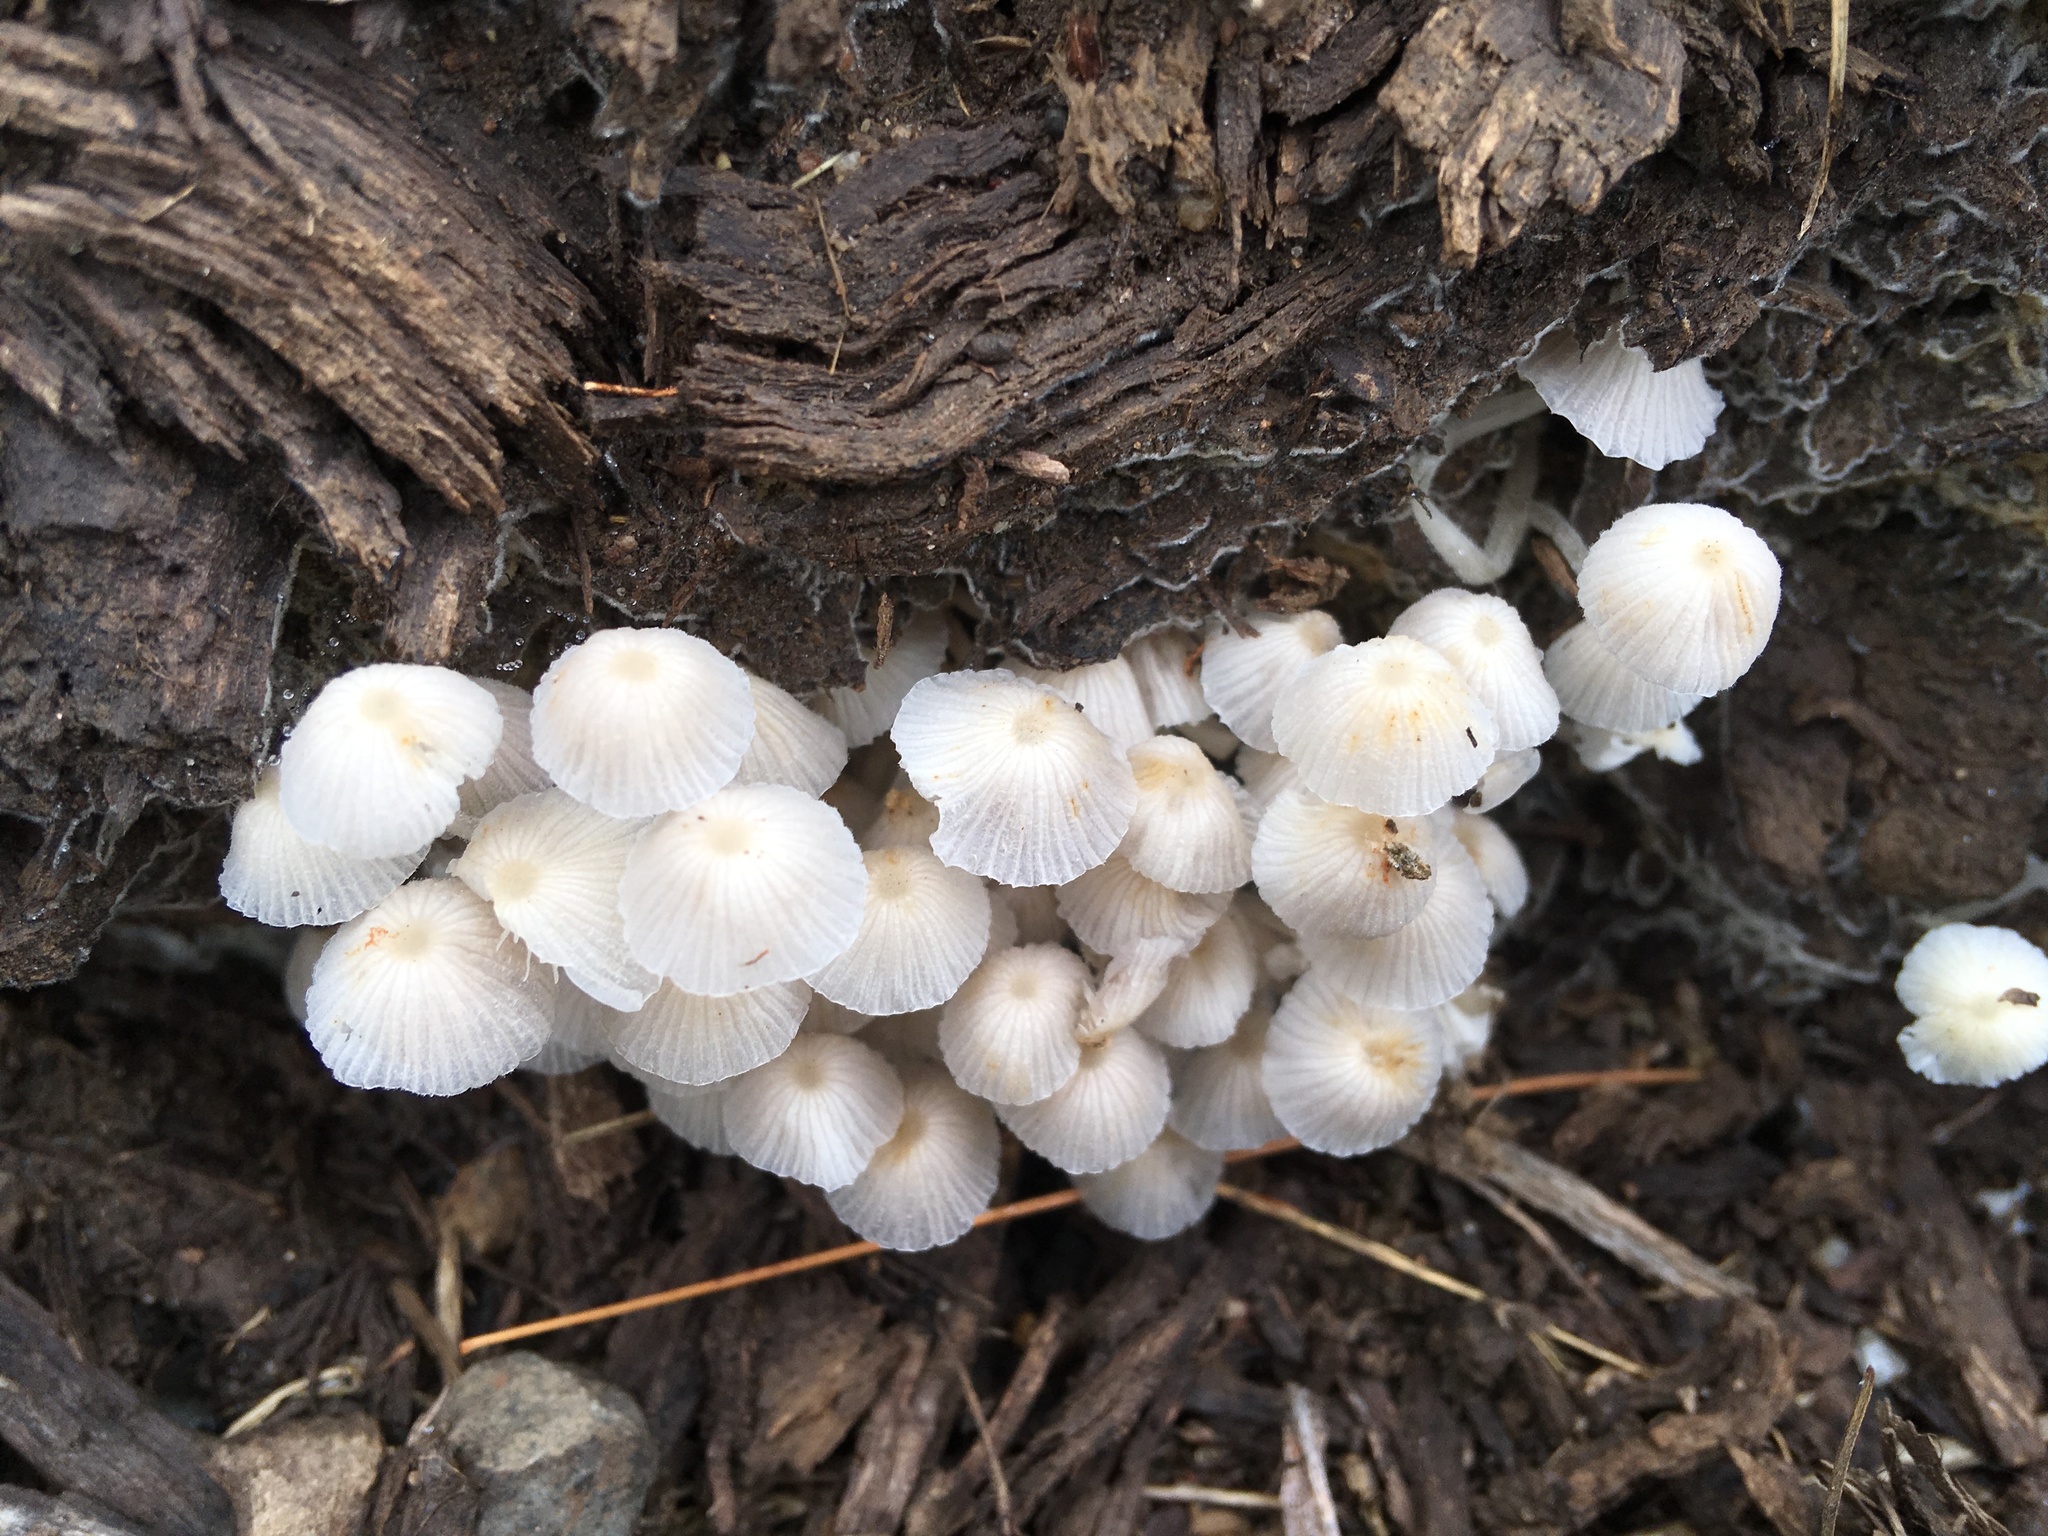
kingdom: Fungi
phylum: Basidiomycota
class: Agaricomycetes
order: Agaricales
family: Psathyrellaceae
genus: Coprinellus
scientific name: Coprinellus disseminatus
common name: Fairies' bonnets
